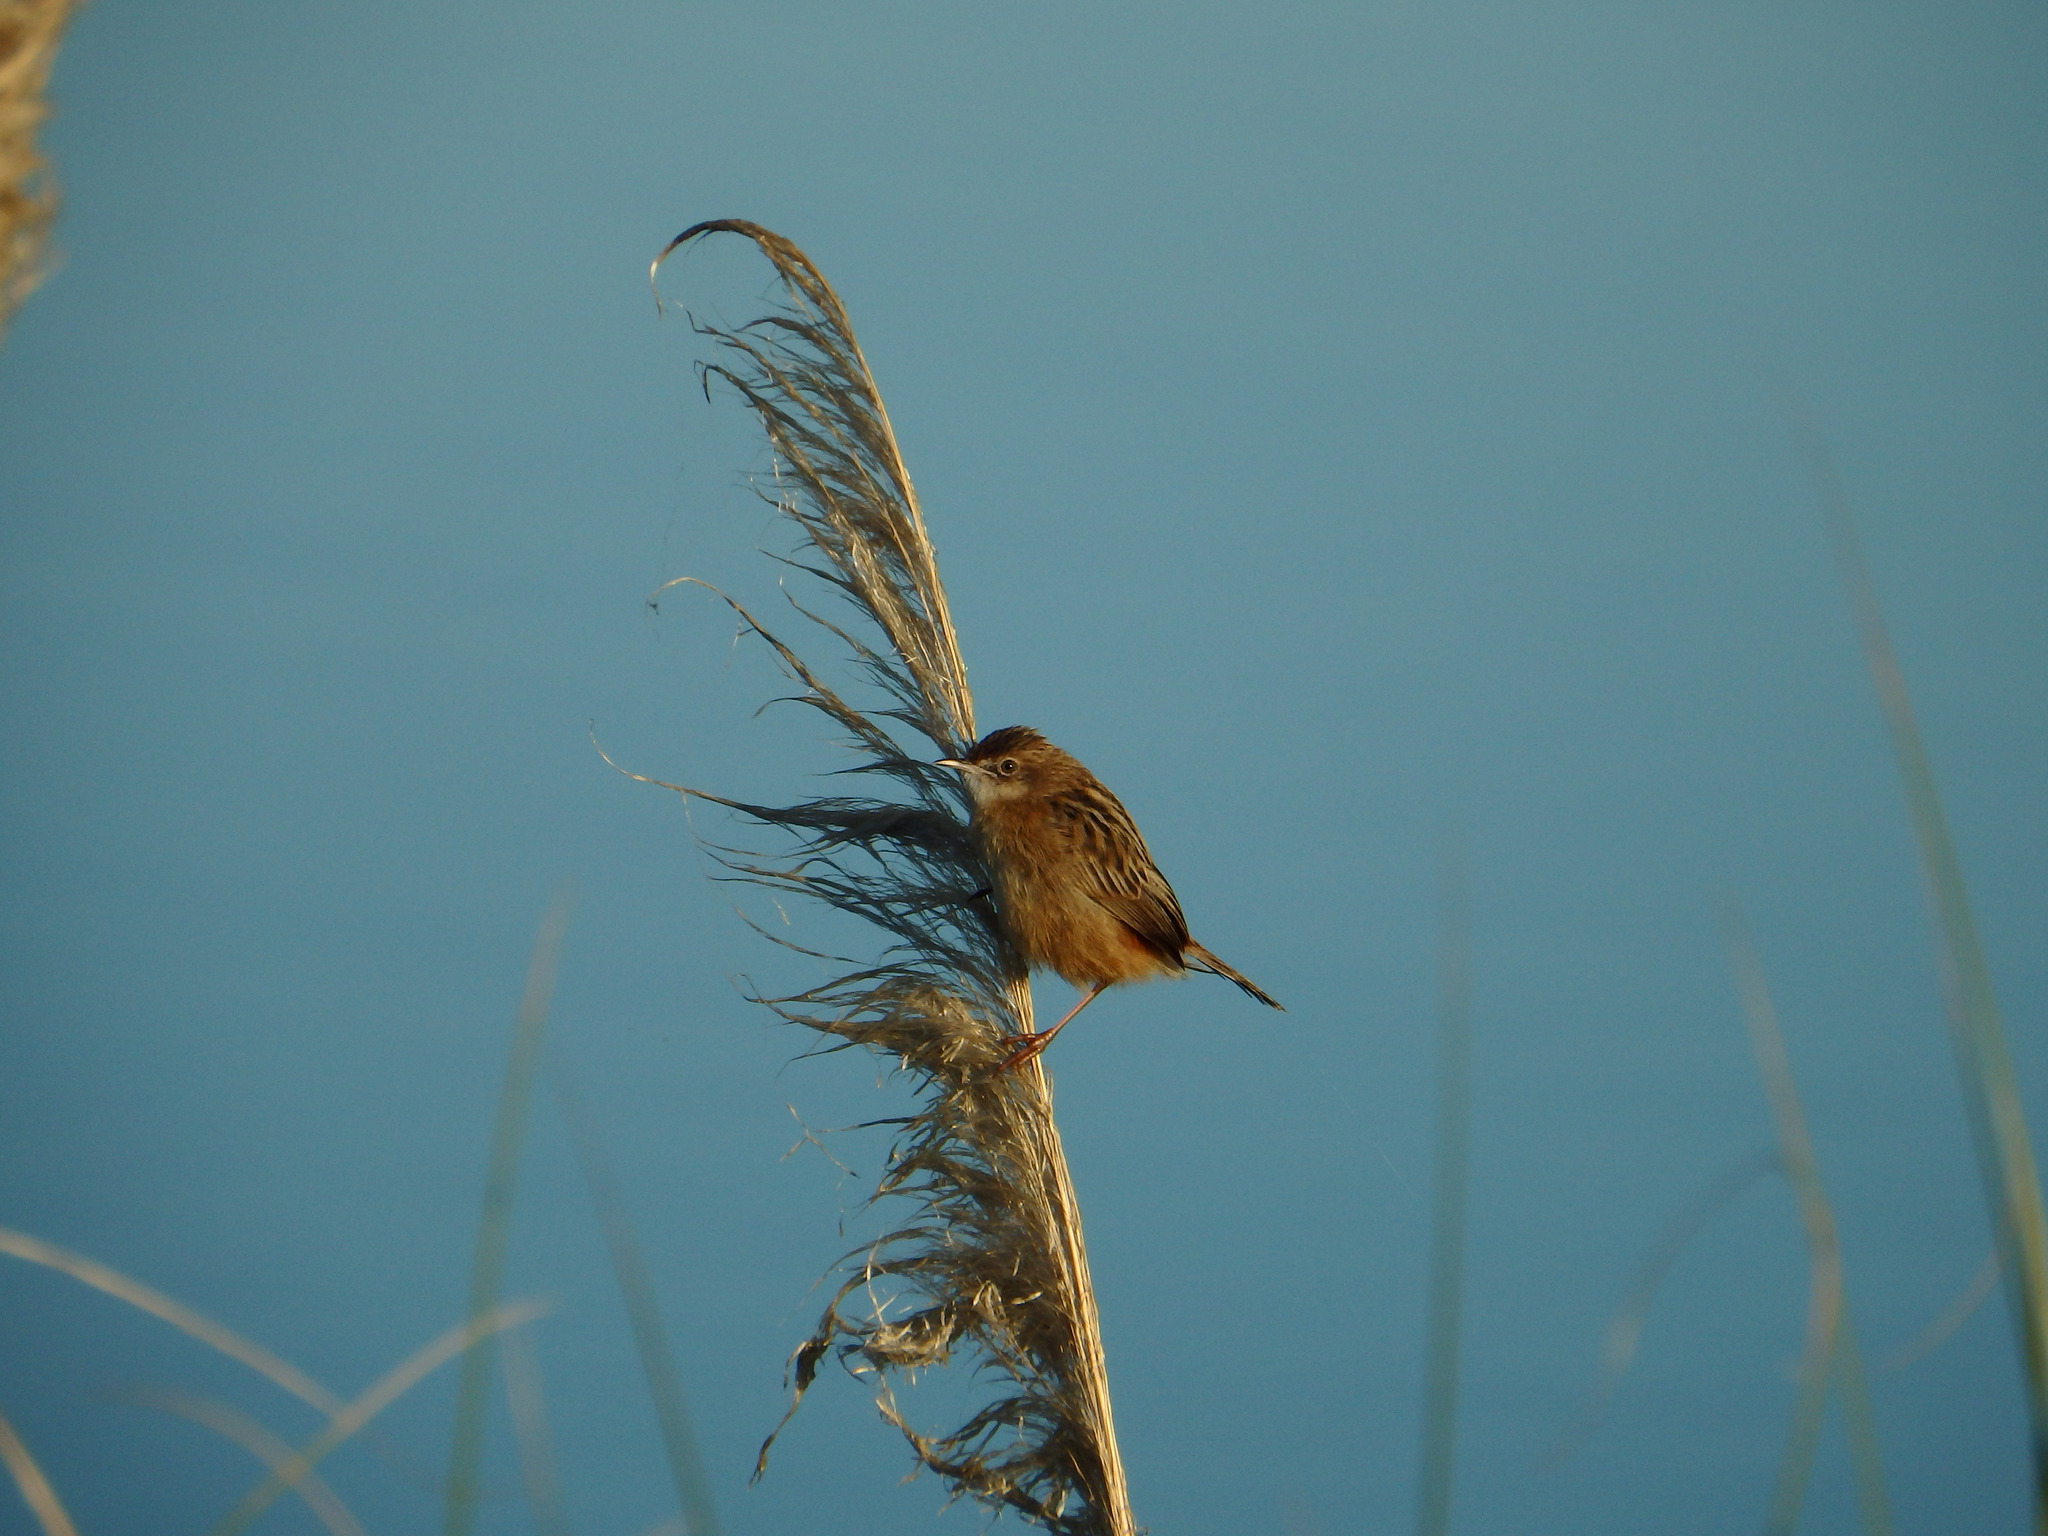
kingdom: Animalia
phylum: Chordata
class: Aves
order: Passeriformes
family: Cisticolidae
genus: Cisticola
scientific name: Cisticola juncidis
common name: Zitting cisticola
